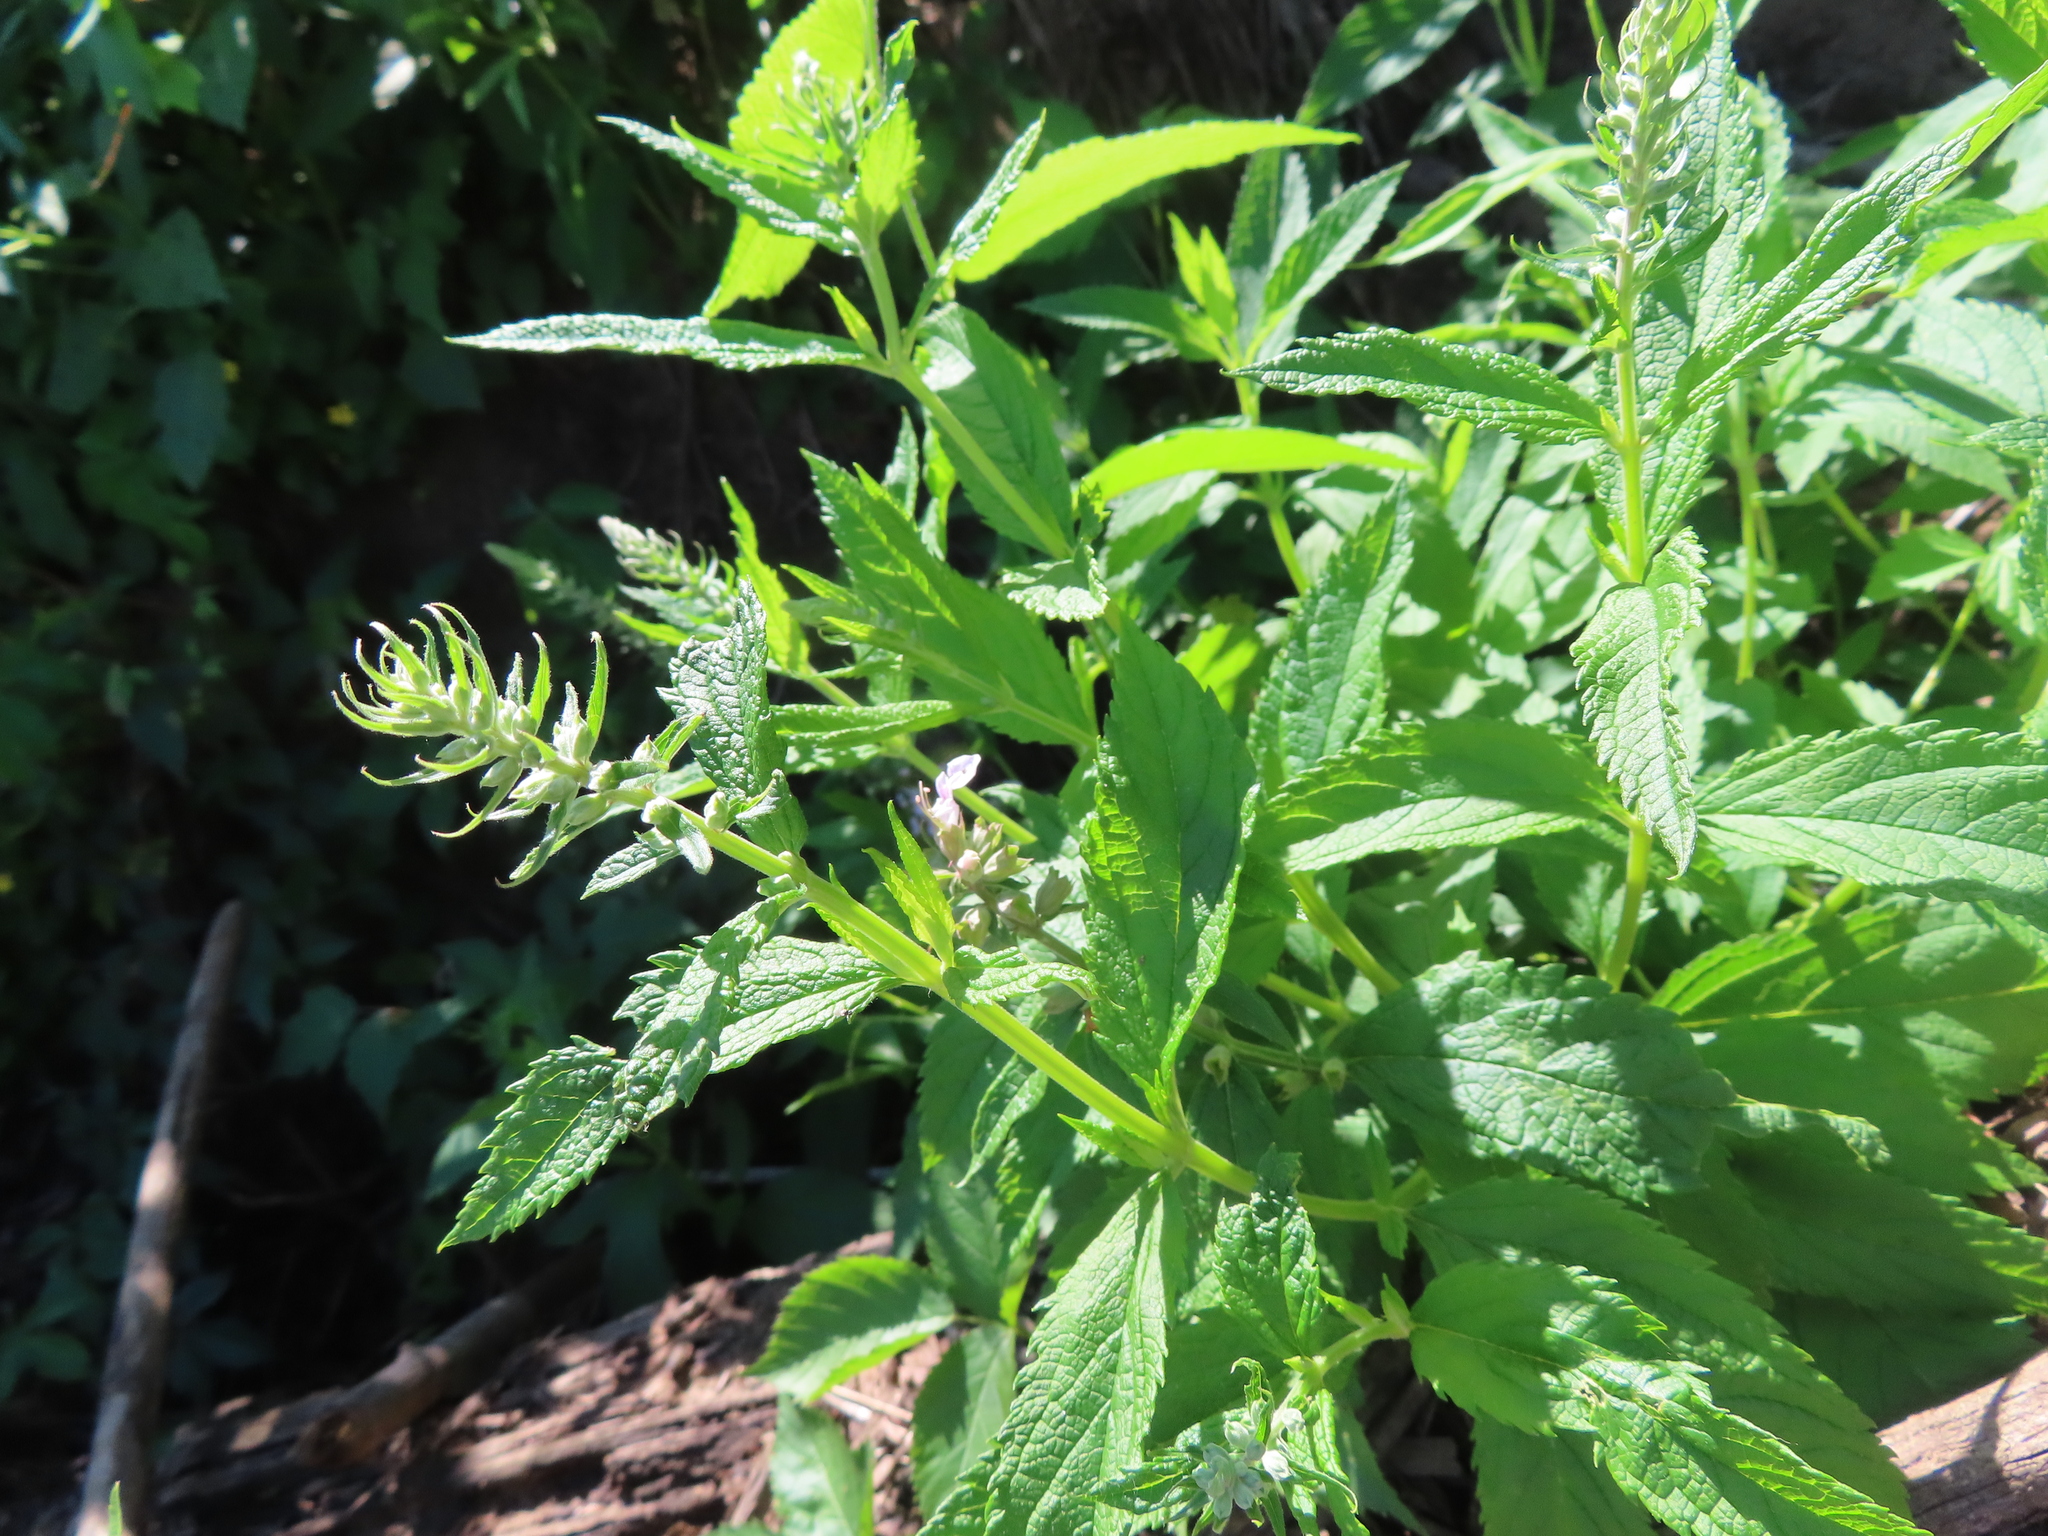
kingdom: Plantae
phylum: Tracheophyta
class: Magnoliopsida
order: Lamiales
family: Lamiaceae
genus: Teucrium
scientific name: Teucrium canadense
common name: American germander
